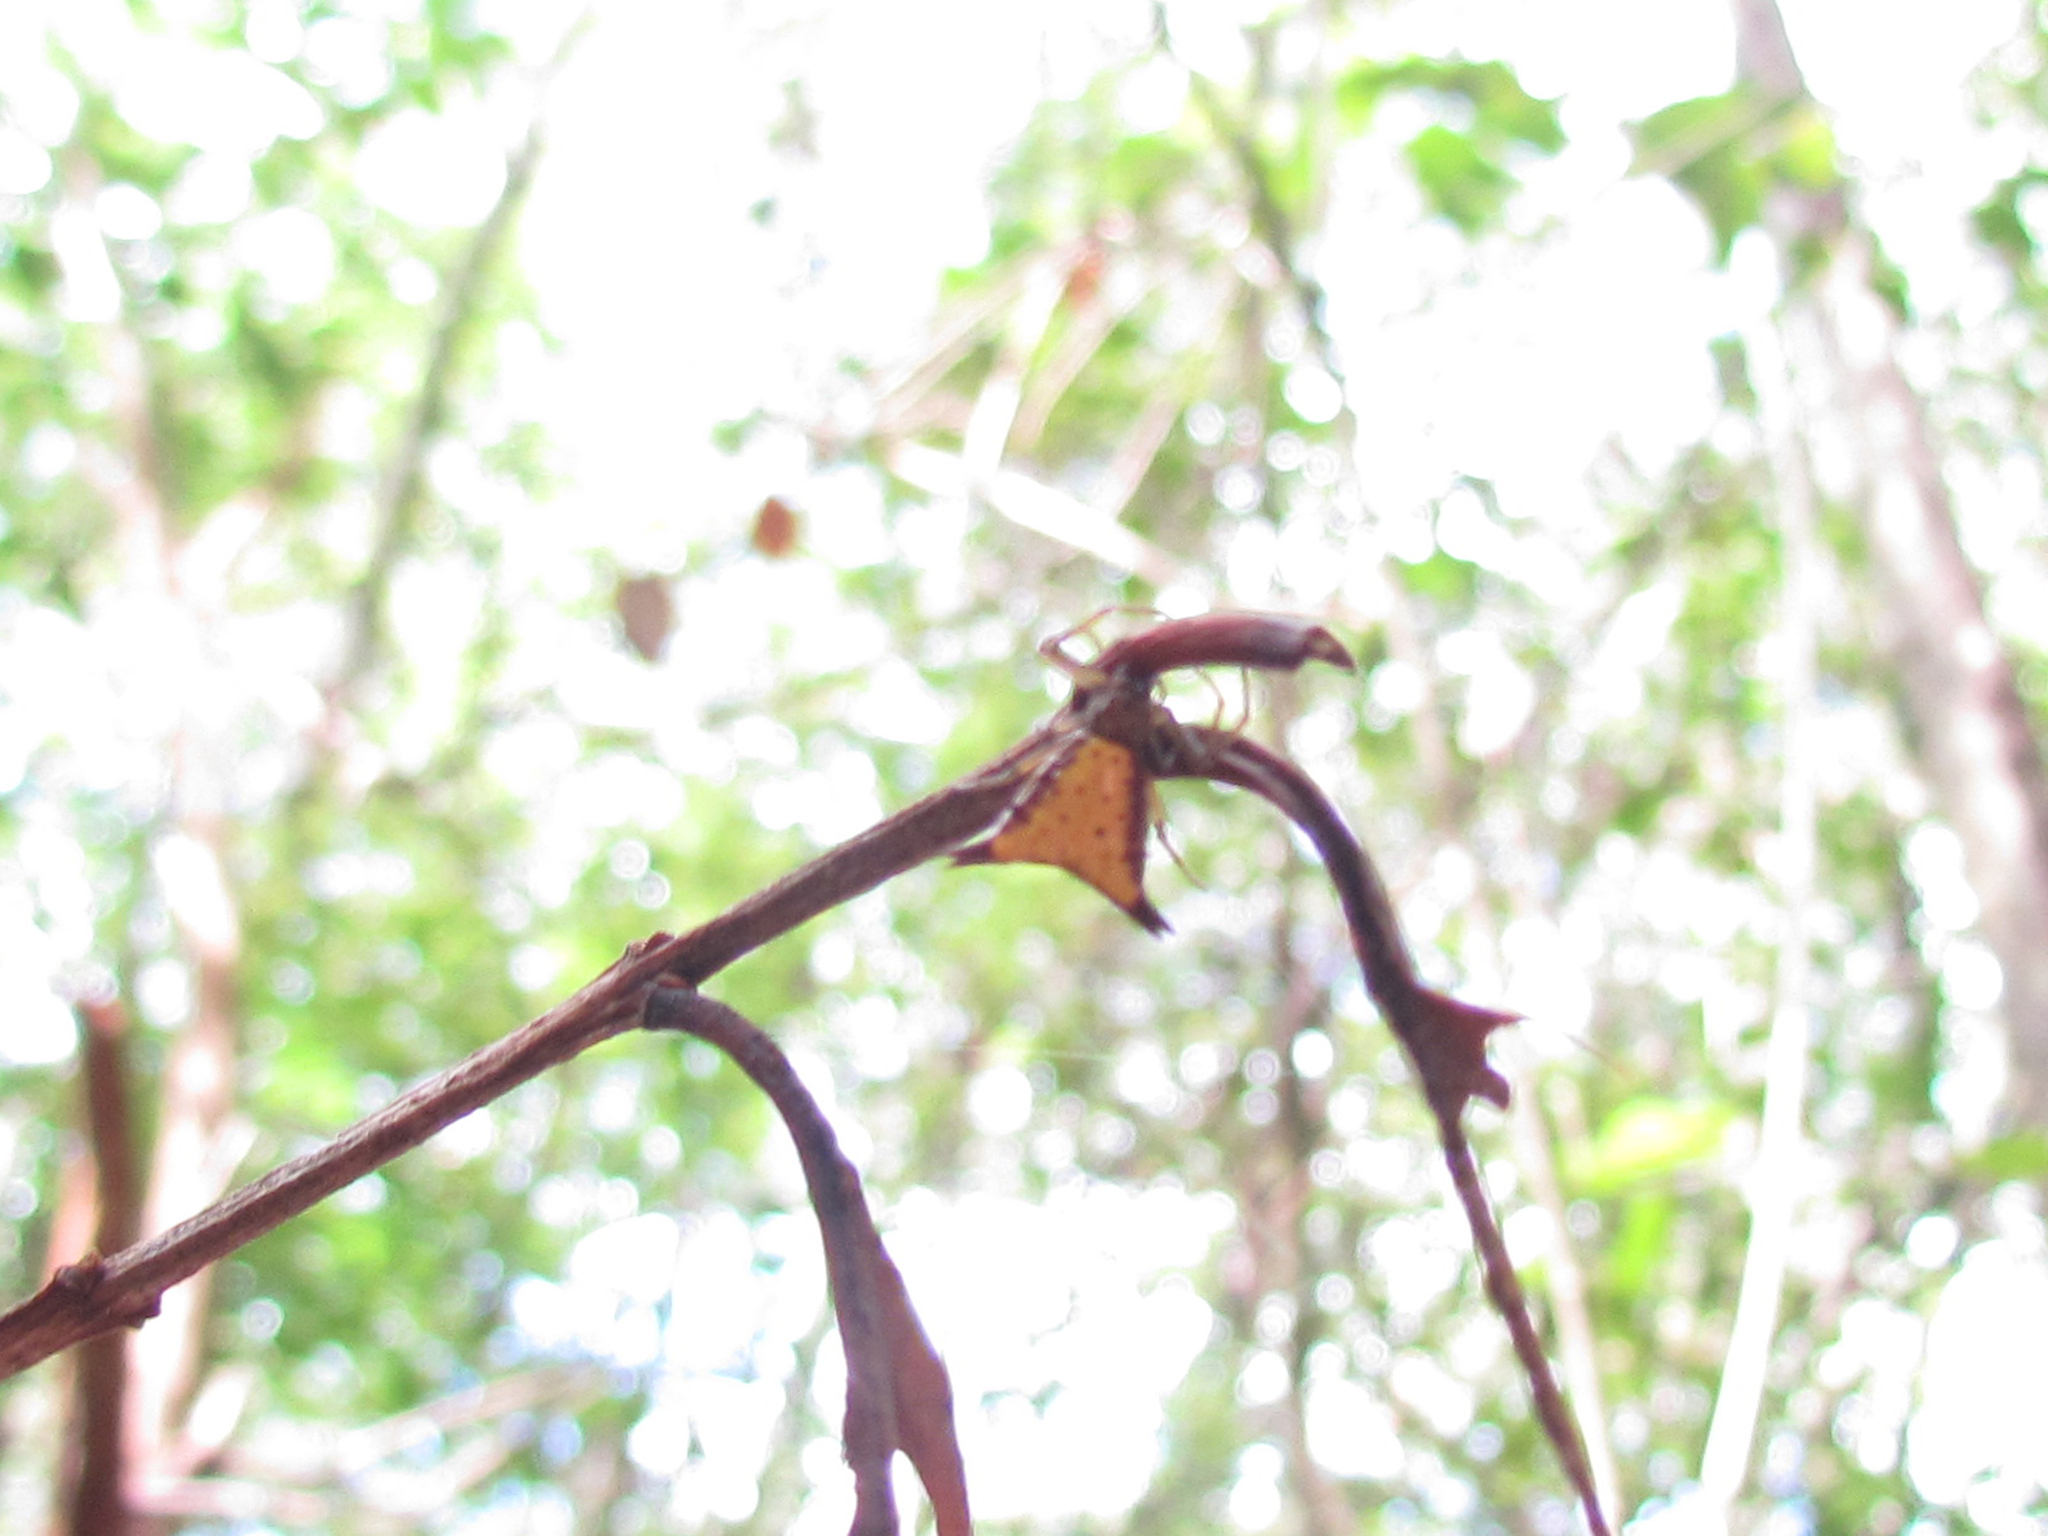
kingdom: Animalia
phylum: Arthropoda
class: Arachnida
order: Araneae
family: Araneidae
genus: Micrathena
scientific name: Micrathena furva
